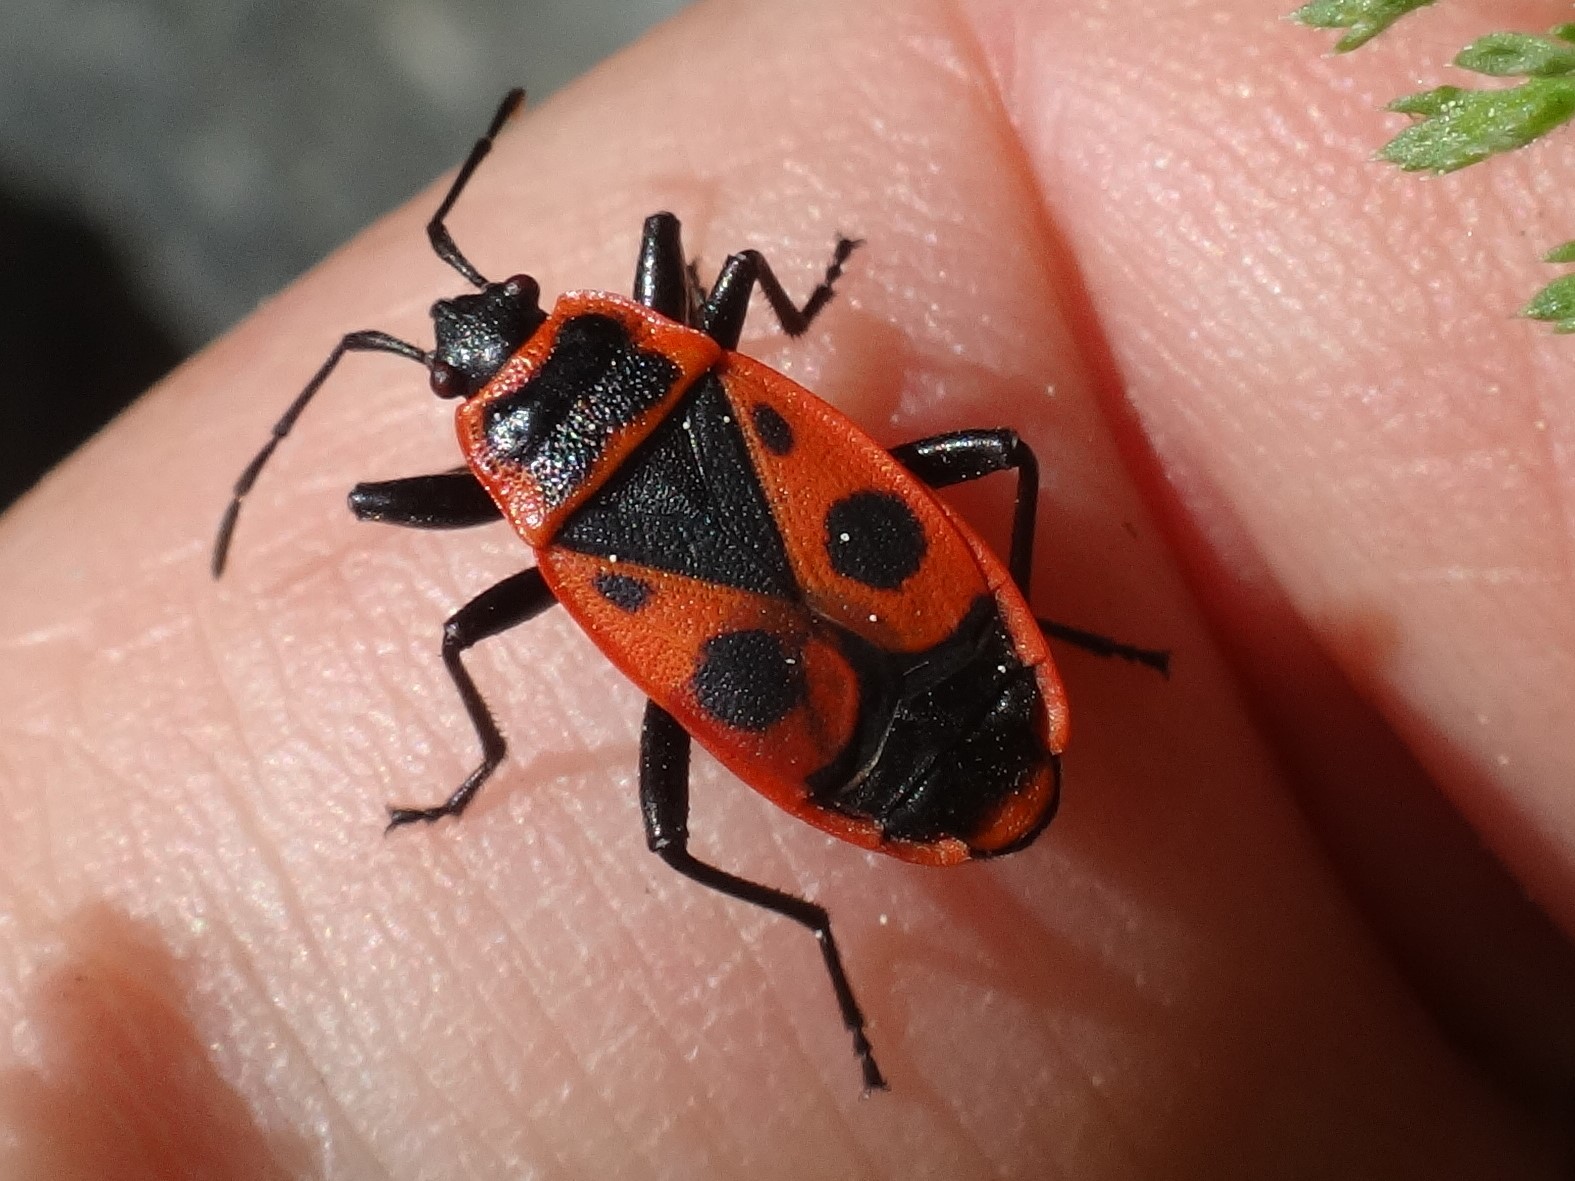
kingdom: Animalia
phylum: Arthropoda
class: Insecta
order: Hemiptera
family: Pyrrhocoridae
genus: Pyrrhocoris
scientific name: Pyrrhocoris apterus
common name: Firebug
